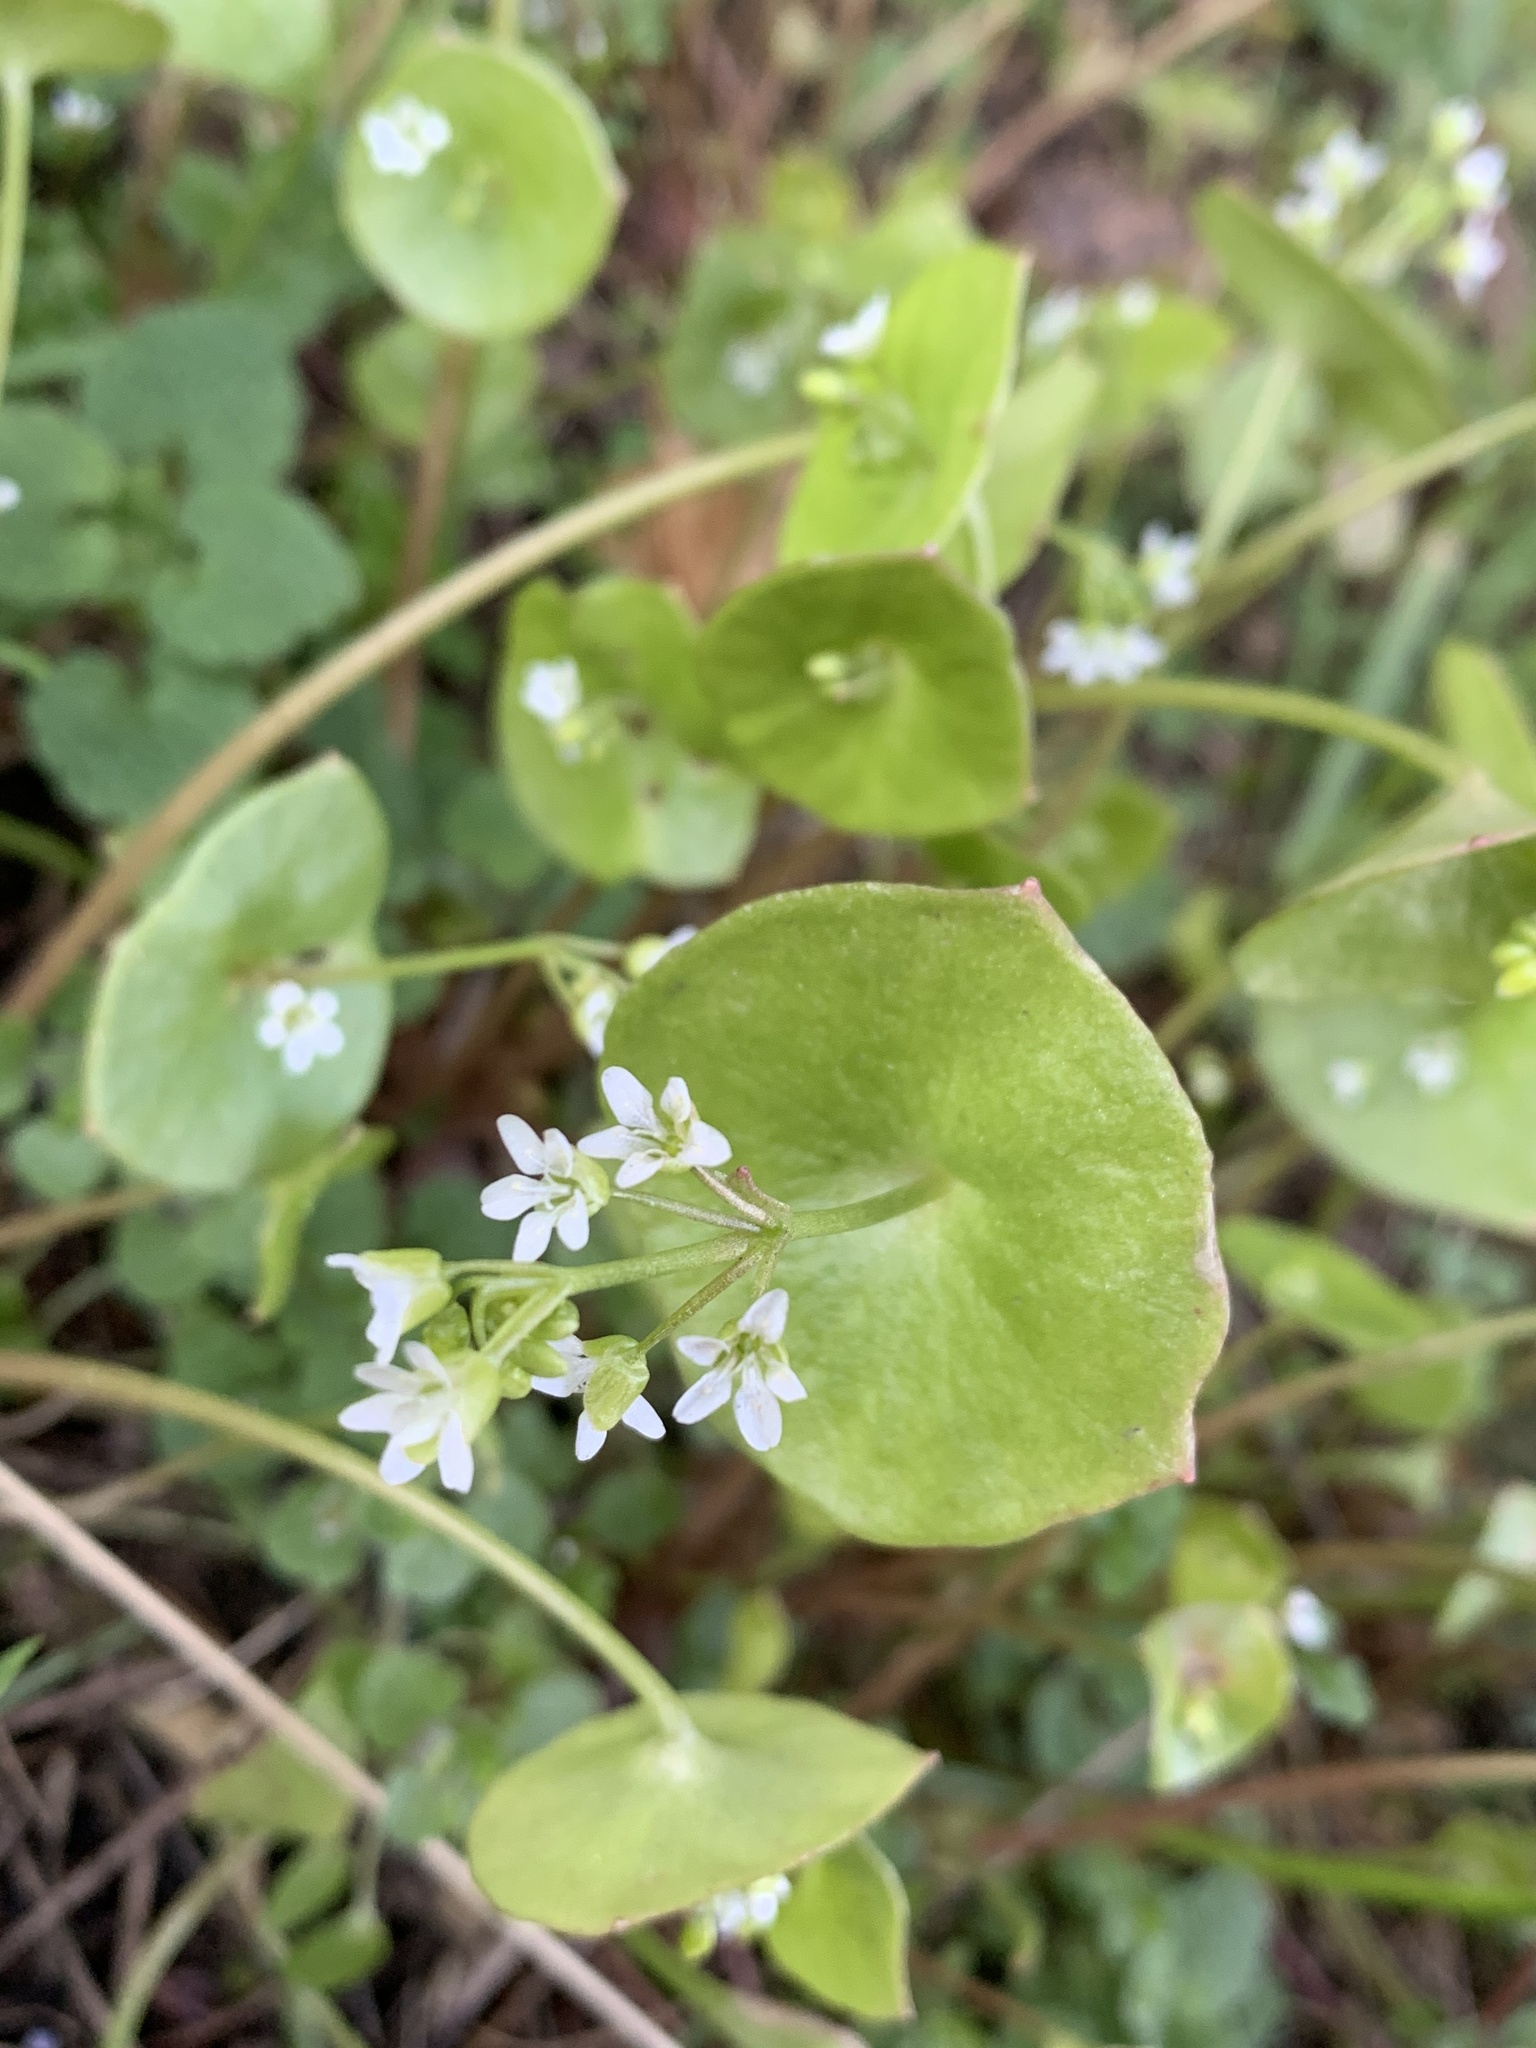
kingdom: Plantae
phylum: Tracheophyta
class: Magnoliopsida
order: Caryophyllales
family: Montiaceae
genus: Claytonia
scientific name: Claytonia perfoliata
